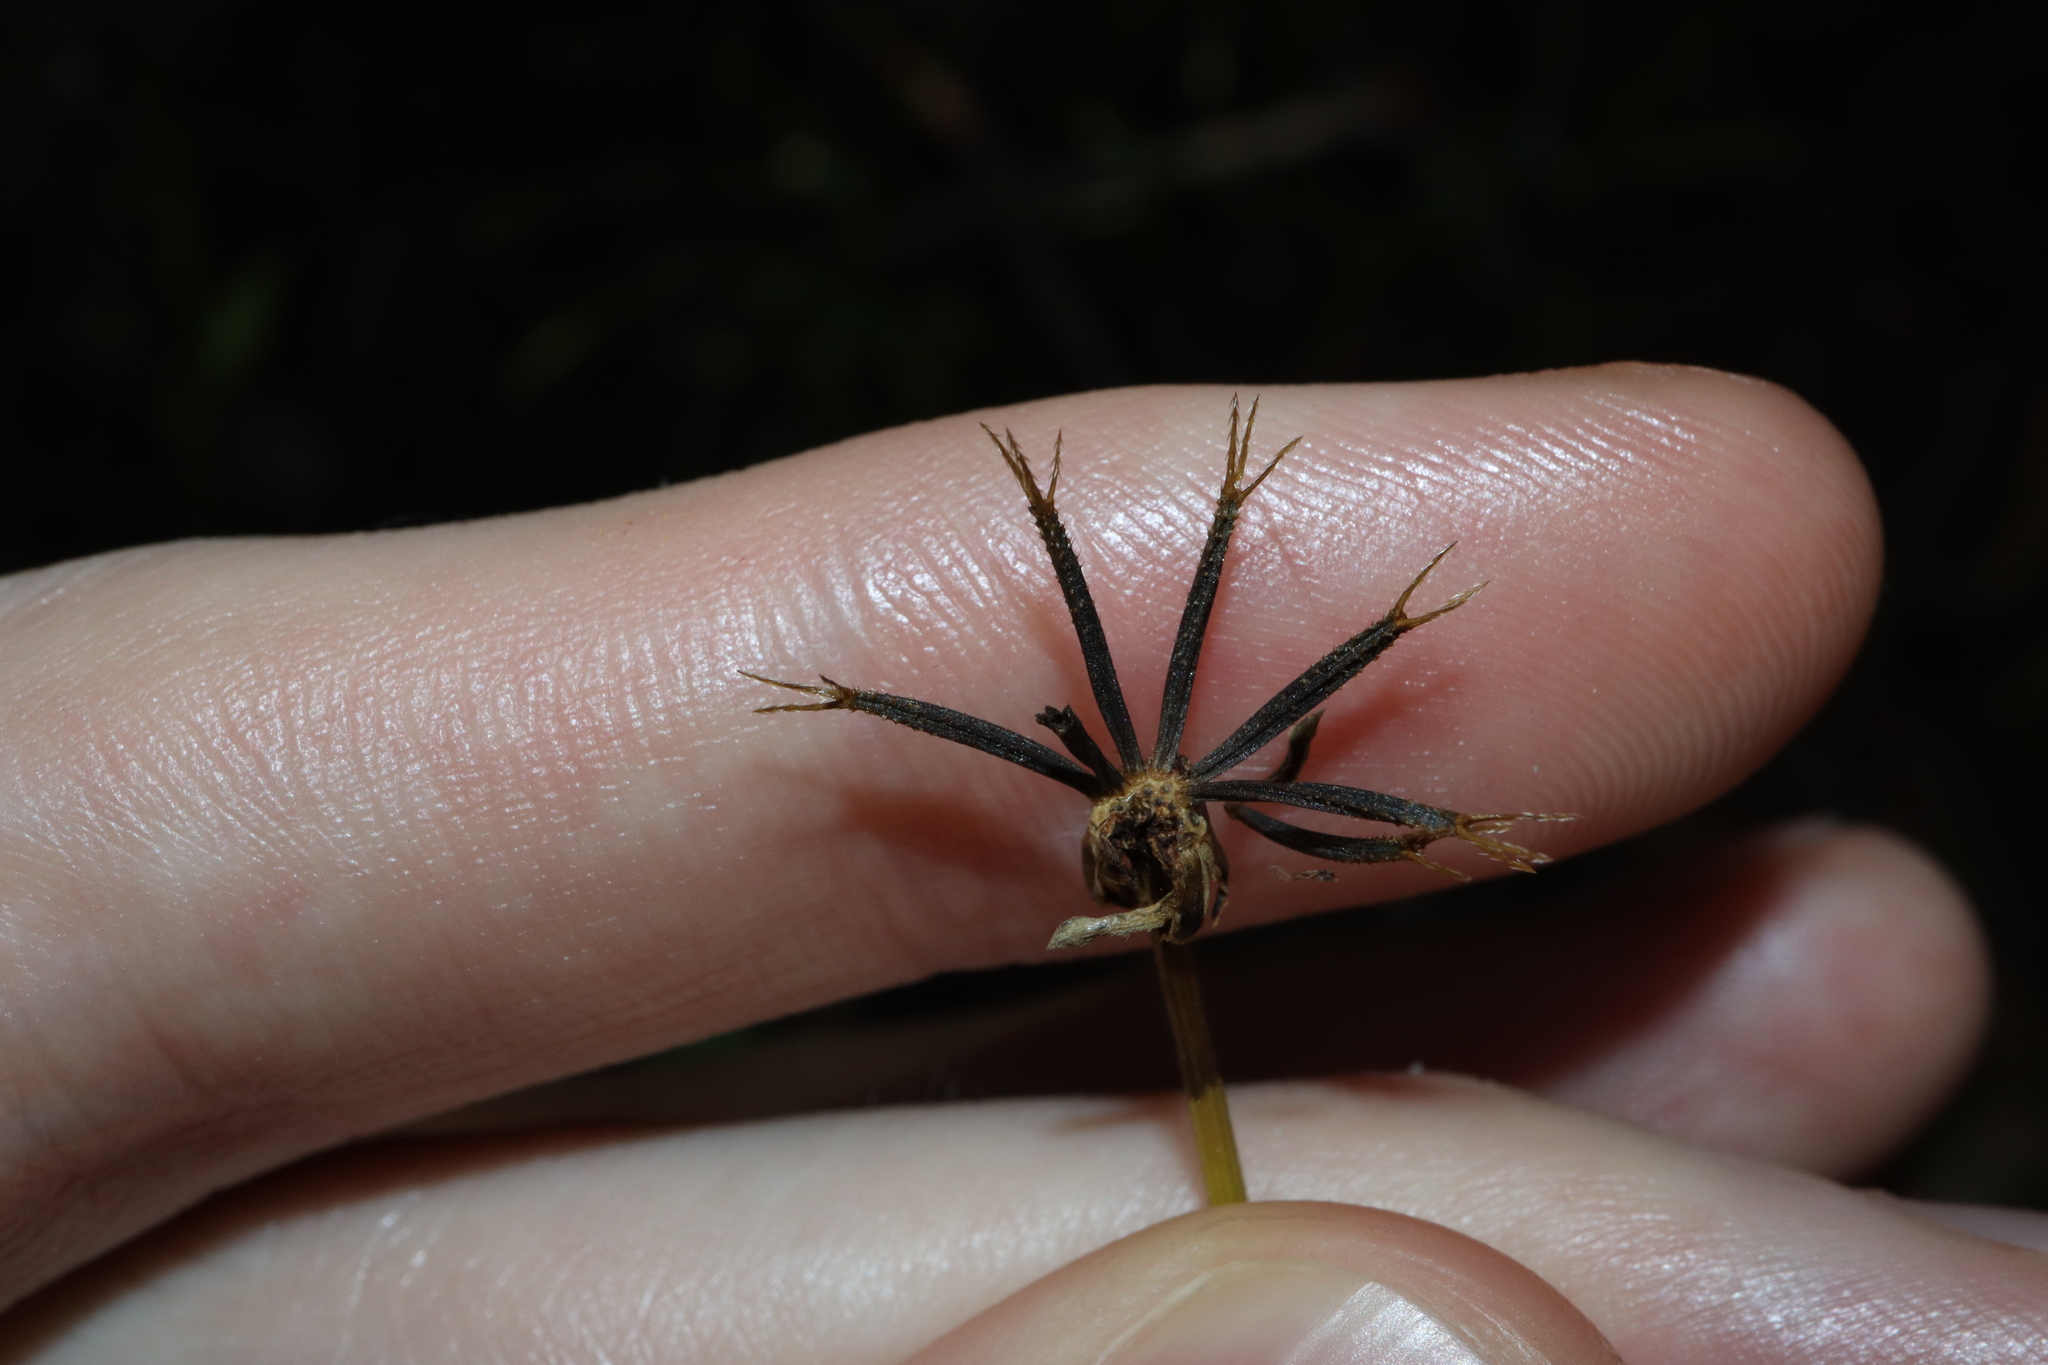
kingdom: Plantae
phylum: Tracheophyta
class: Magnoliopsida
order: Asterales
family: Asteraceae
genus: Bidens
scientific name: Bidens pilosa
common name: Black-jack
